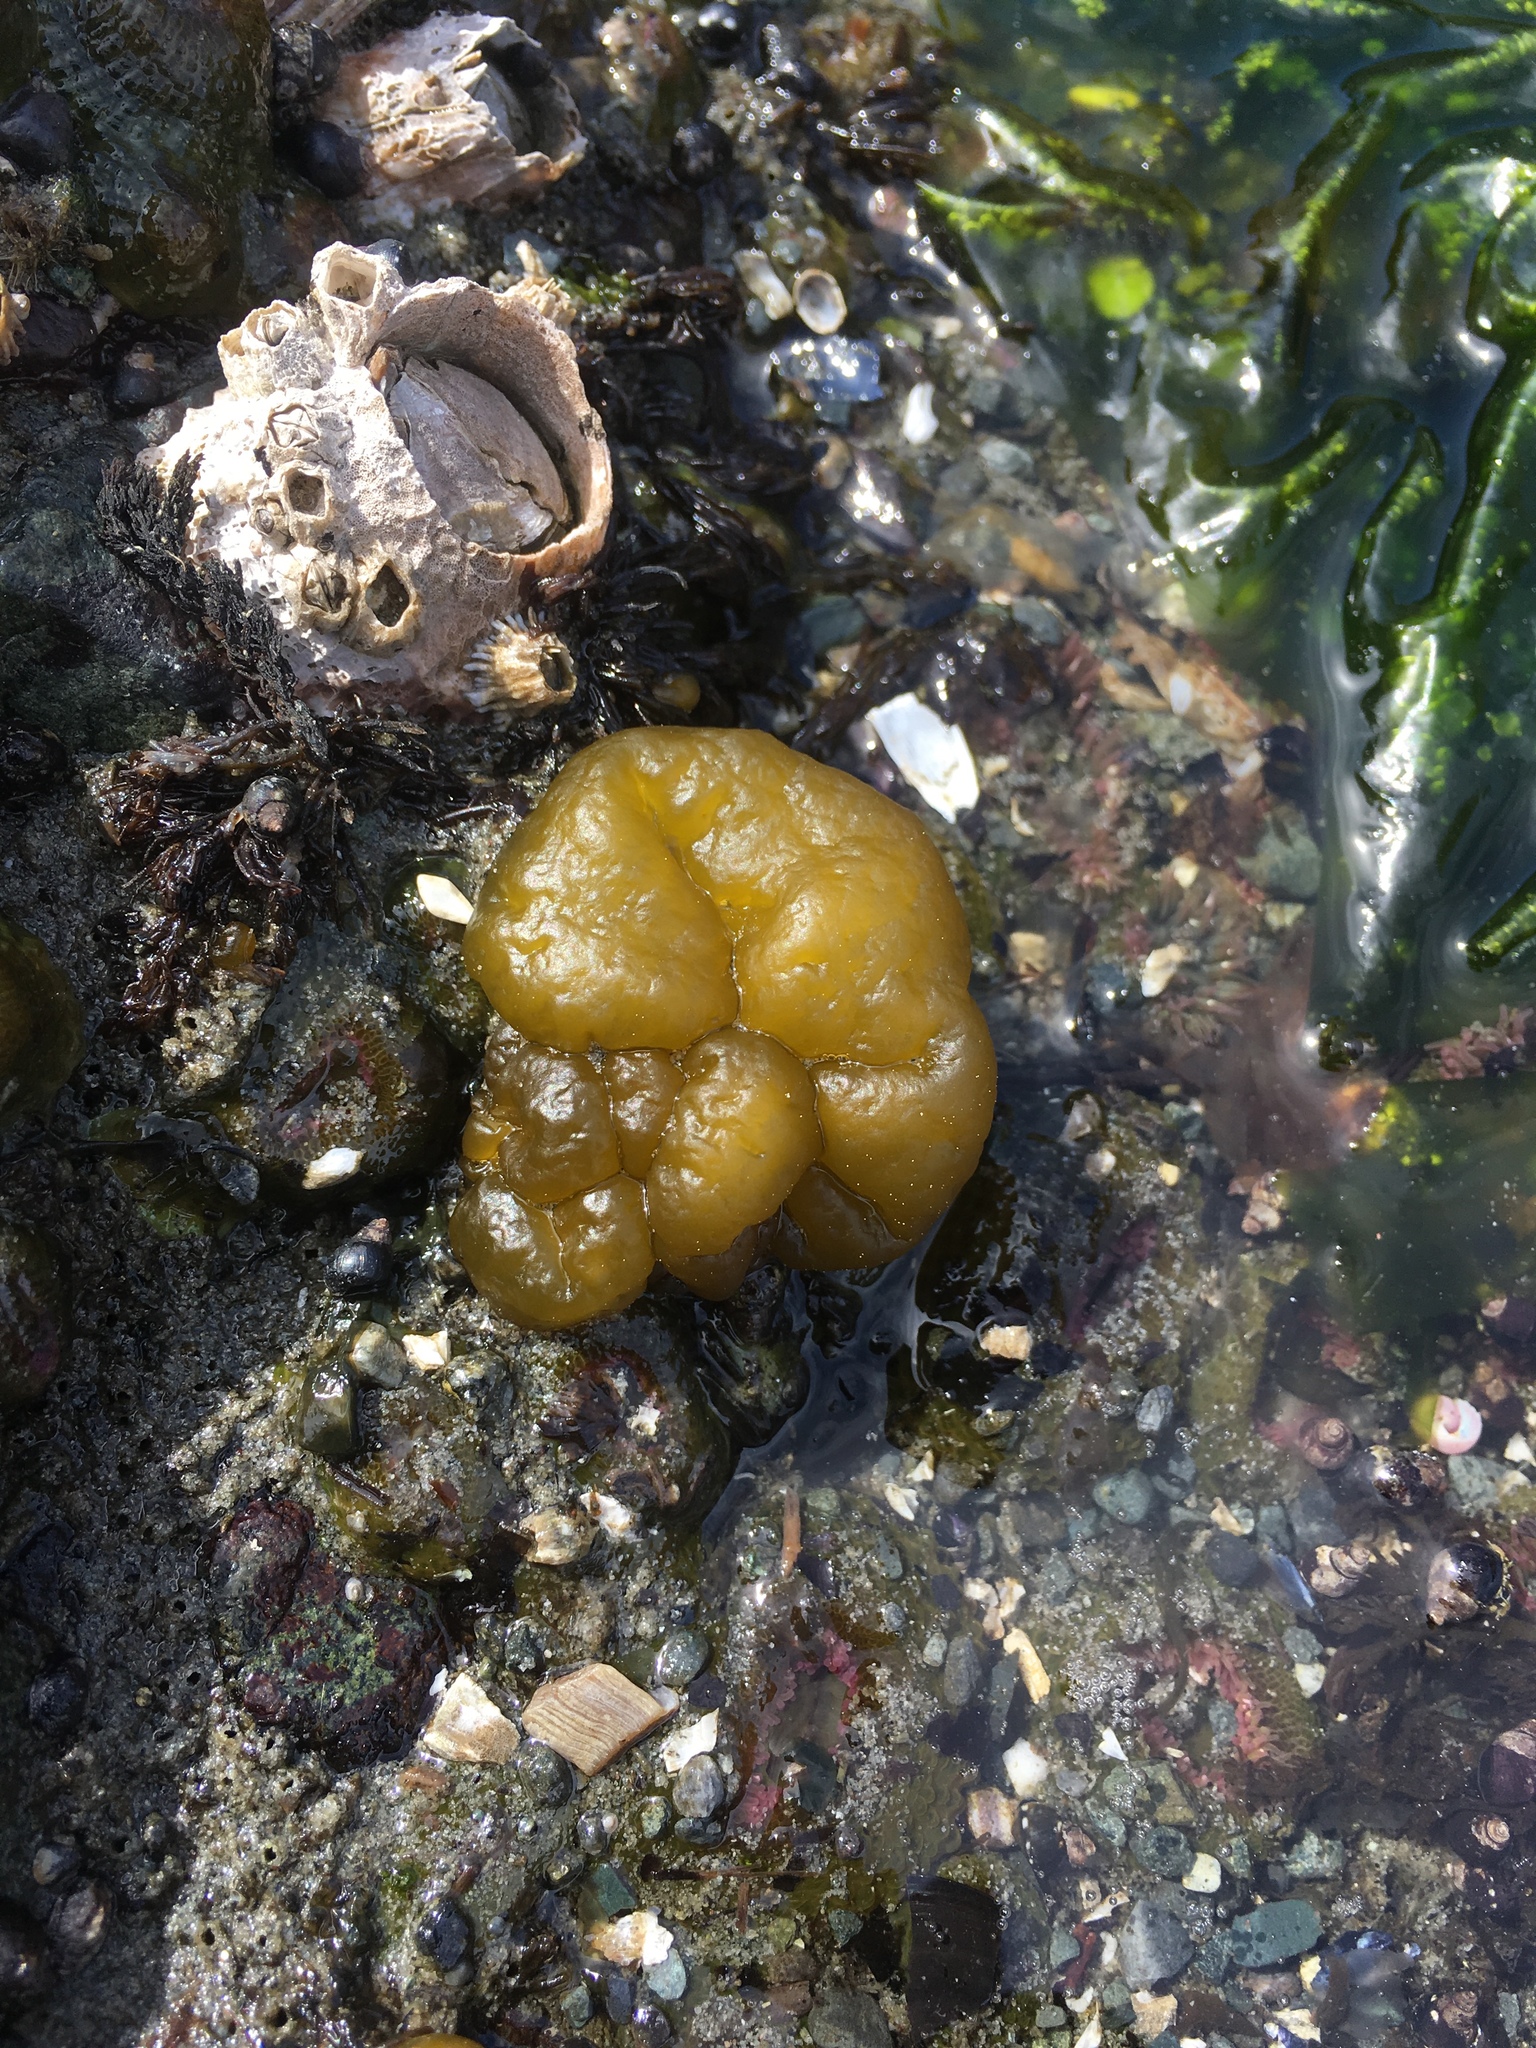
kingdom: Chromista
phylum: Ochrophyta
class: Phaeophyceae
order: Ectocarpales
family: Chordariaceae
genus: Leathesia
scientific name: Leathesia marina
